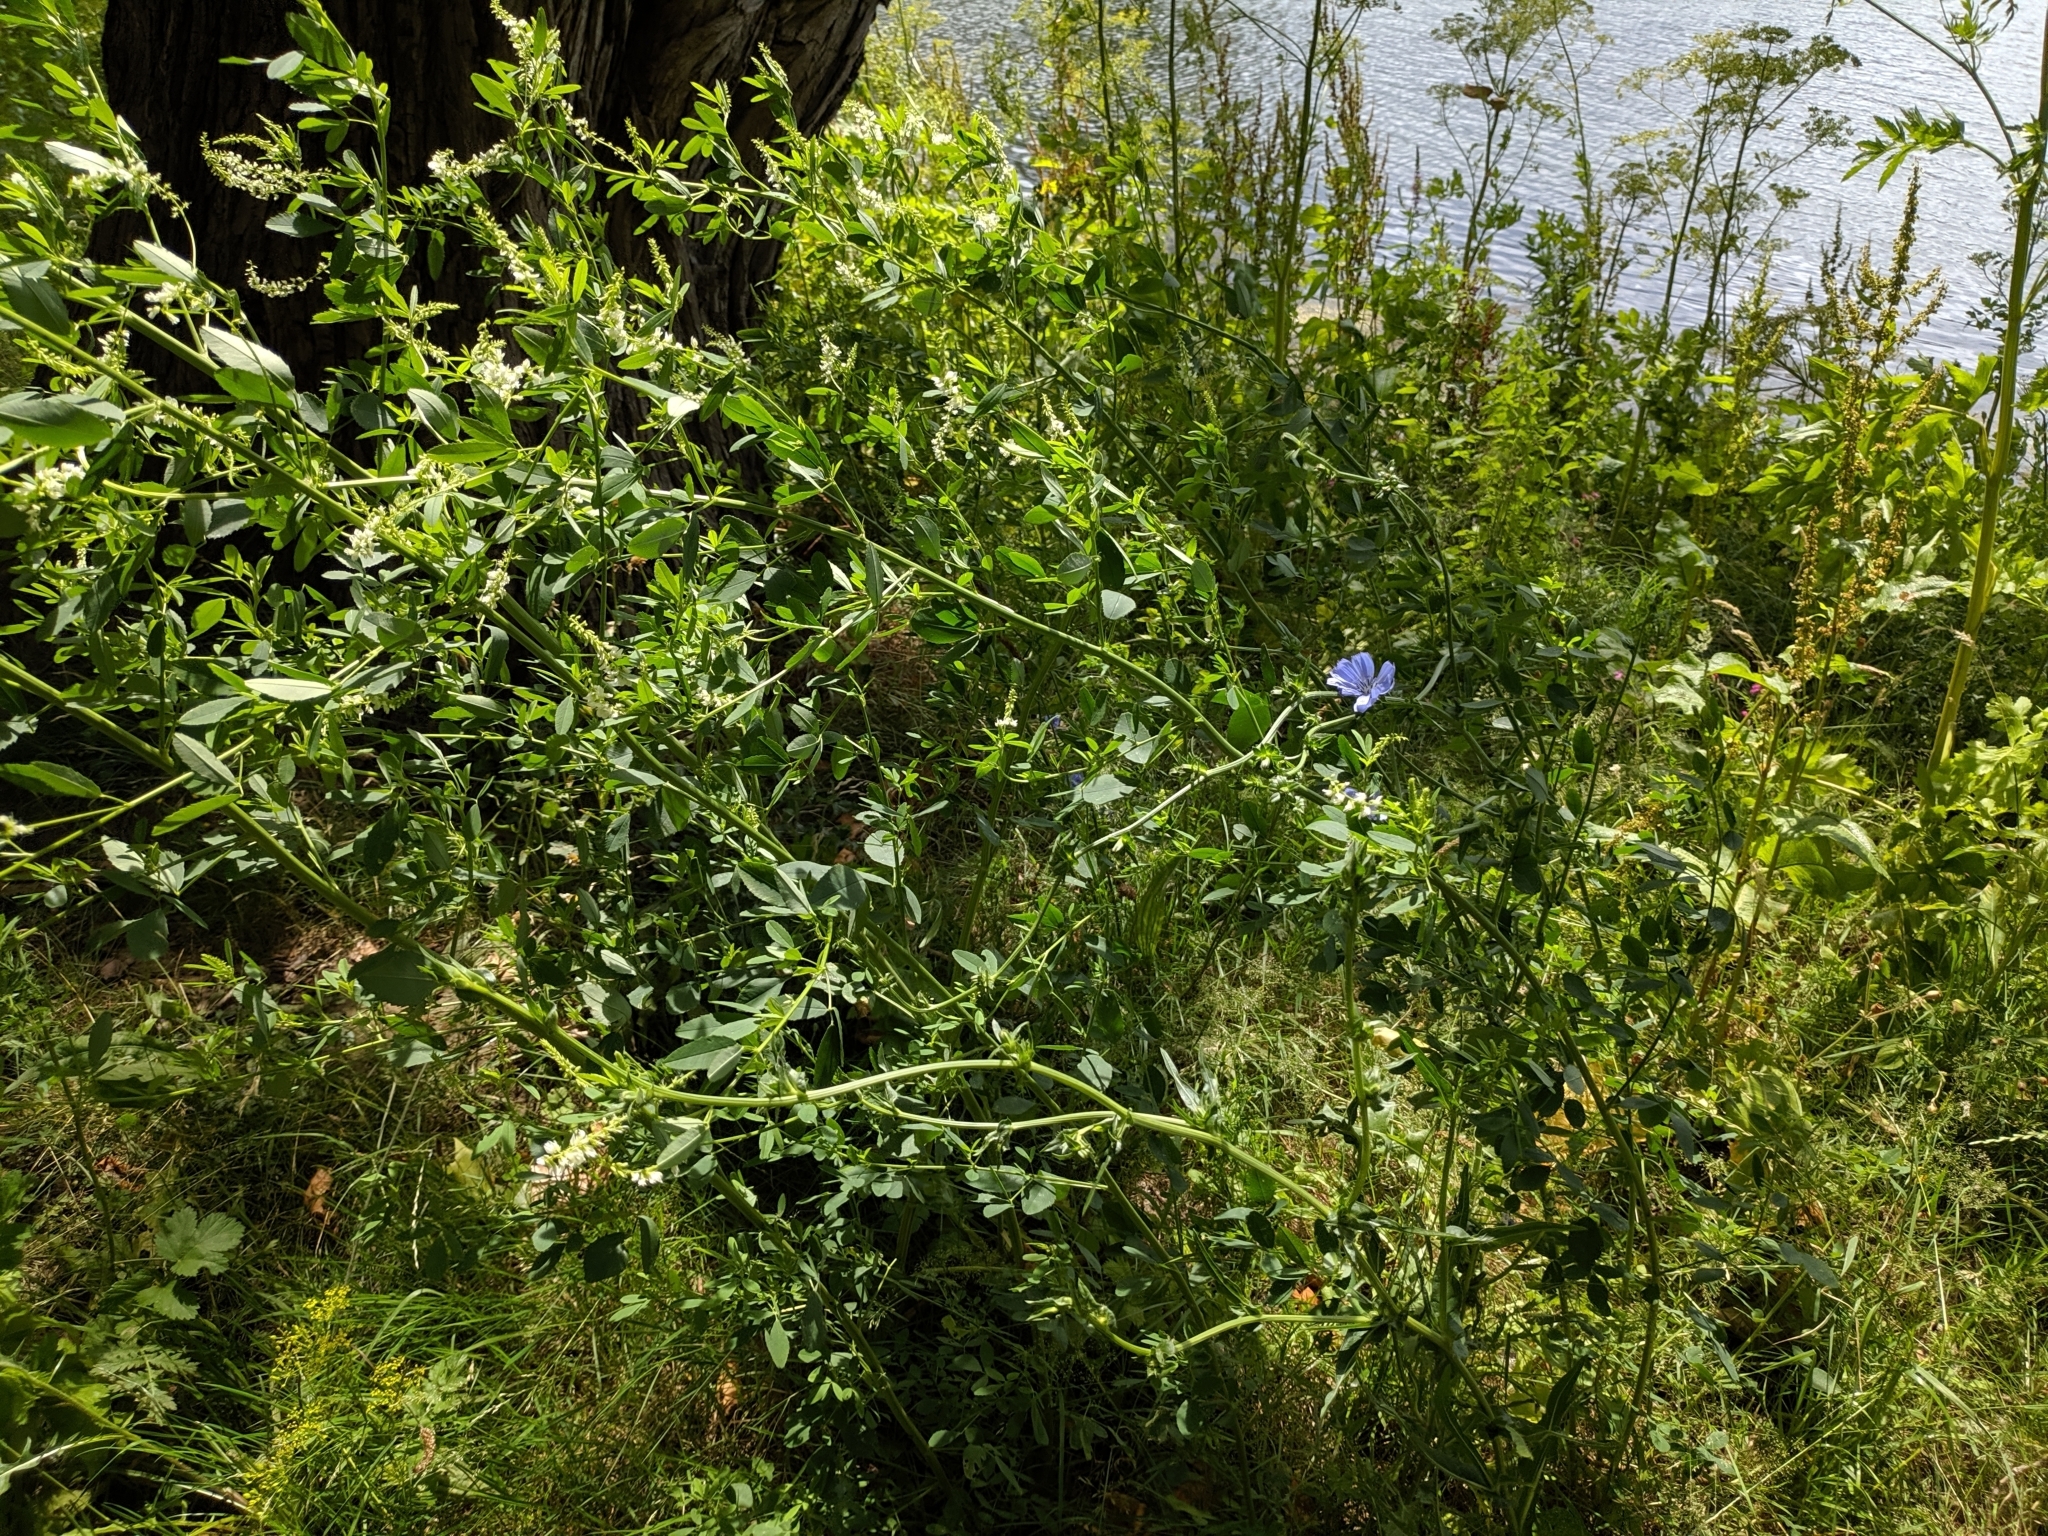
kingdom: Plantae
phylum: Tracheophyta
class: Magnoliopsida
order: Asterales
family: Asteraceae
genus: Cichorium
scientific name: Cichorium intybus
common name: Chicory
